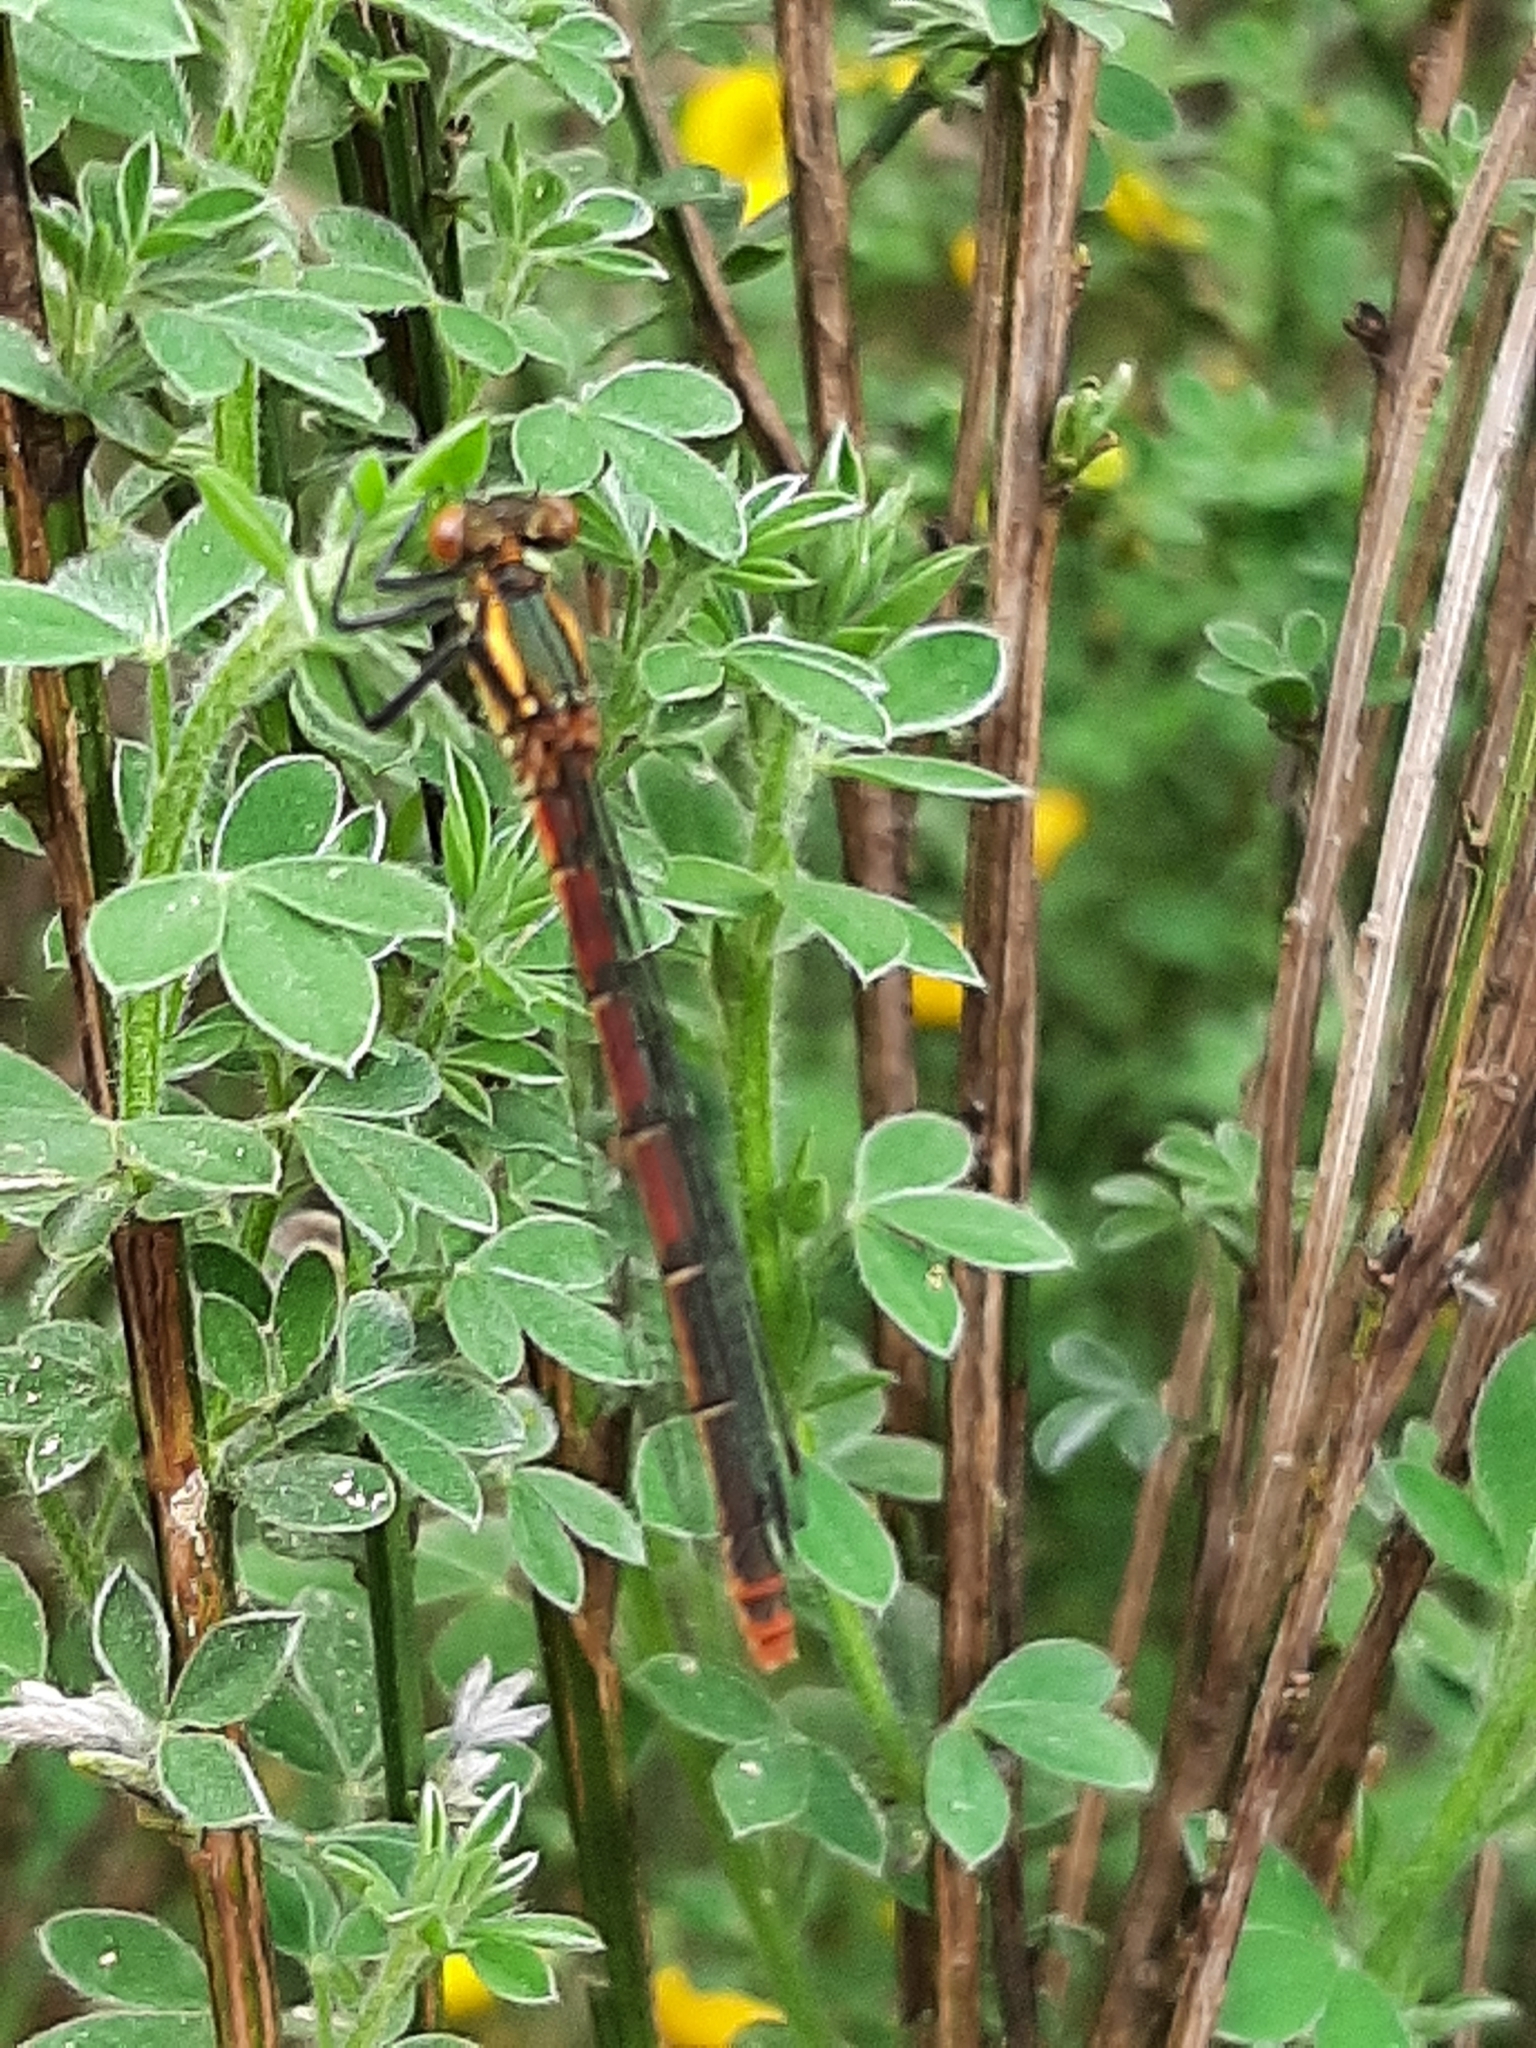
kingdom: Animalia
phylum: Arthropoda
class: Insecta
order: Odonata
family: Coenagrionidae
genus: Pyrrhosoma
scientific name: Pyrrhosoma nymphula
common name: Large red damsel
